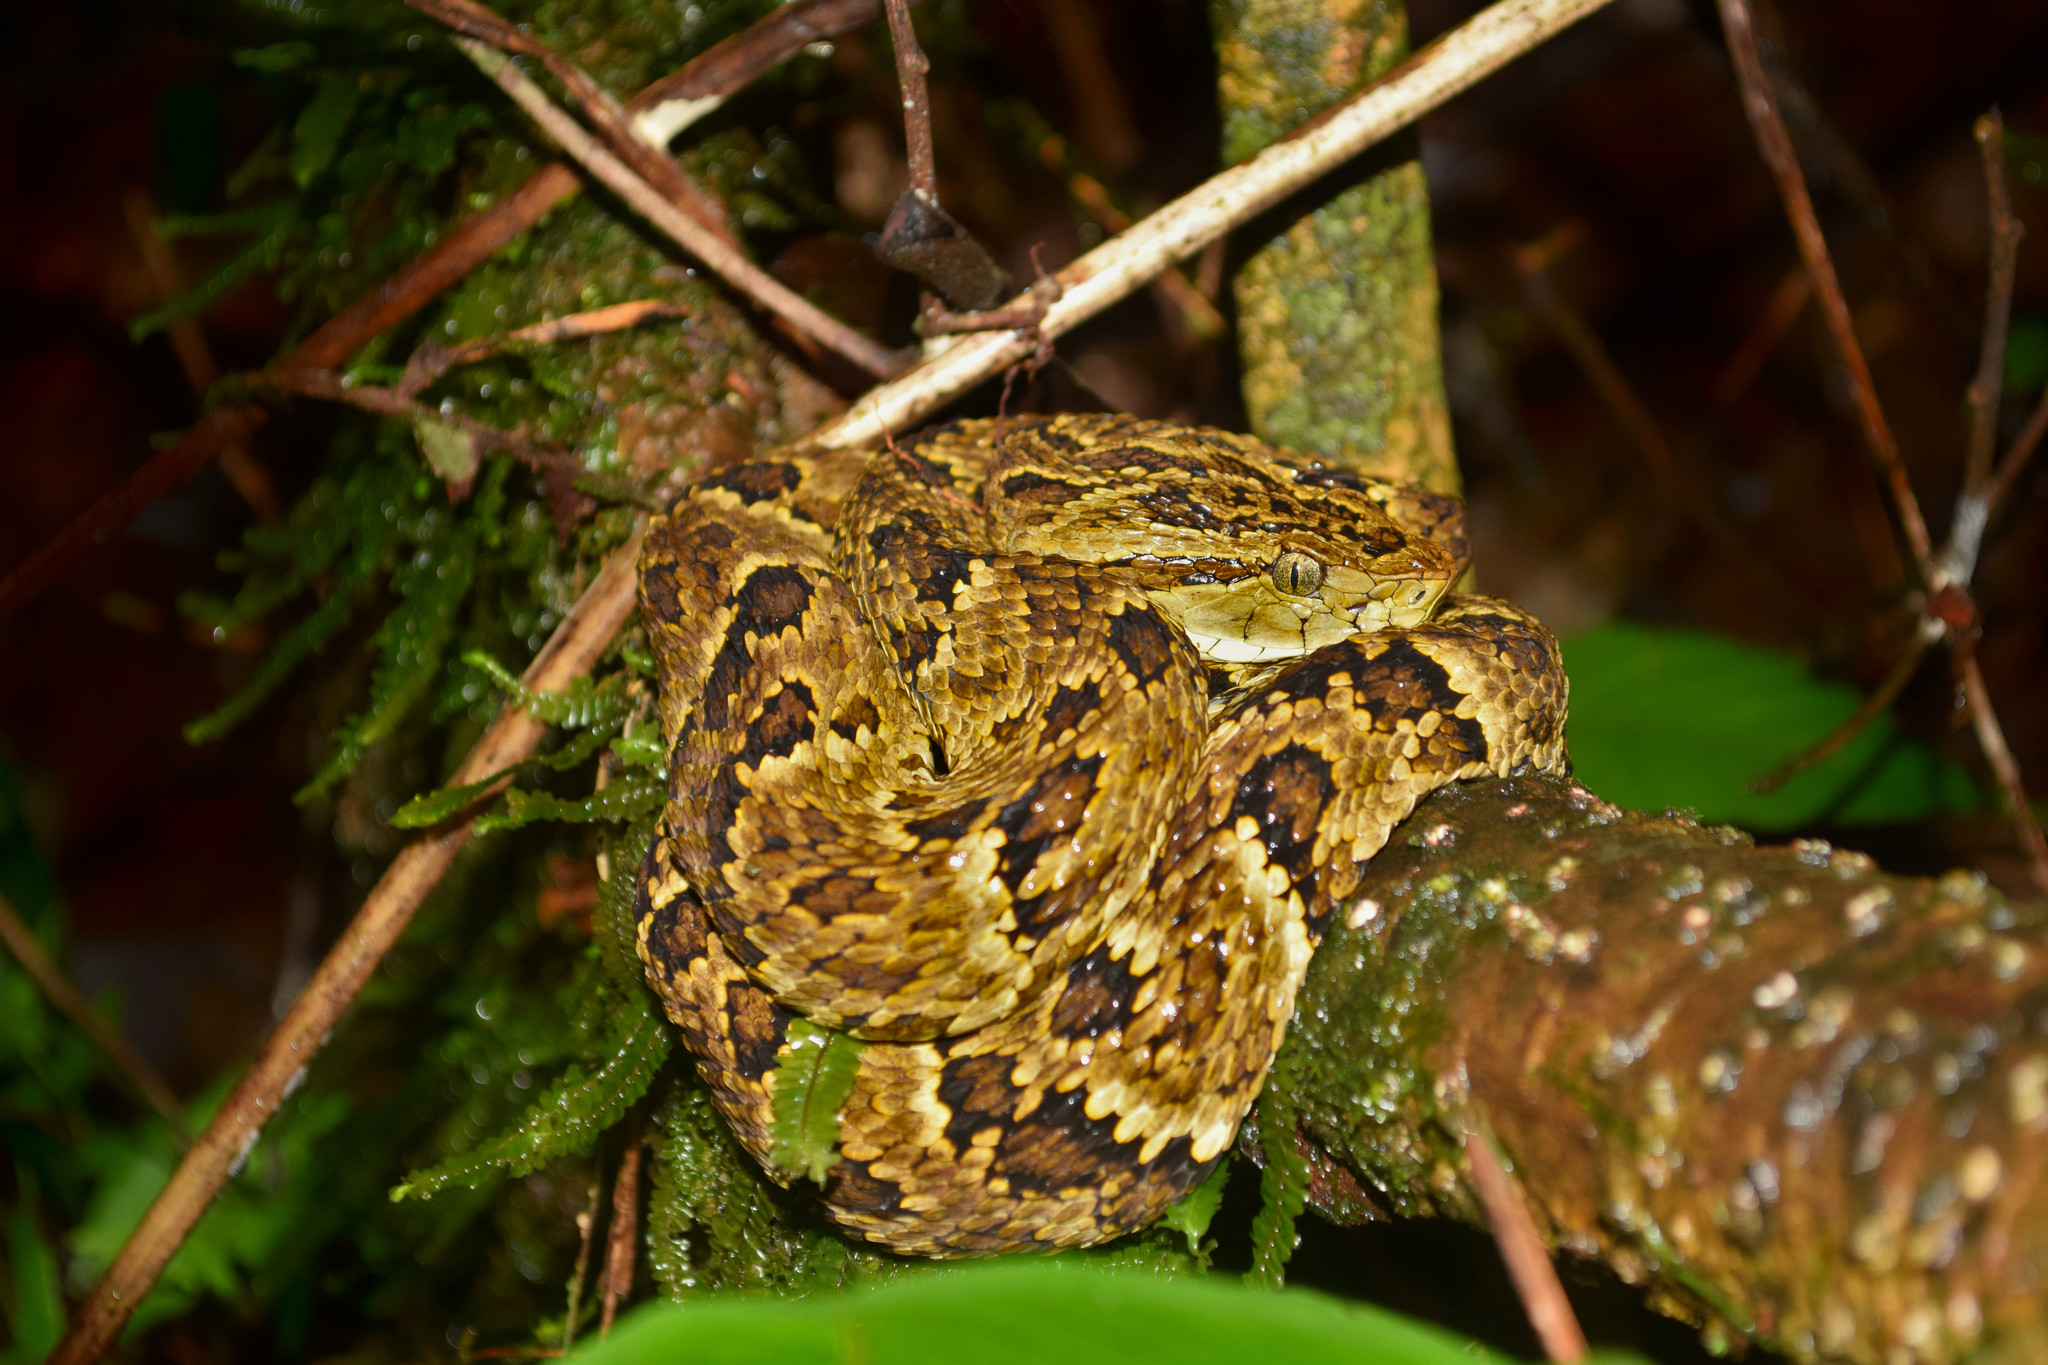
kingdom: Animalia
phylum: Chordata
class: Squamata
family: Viperidae
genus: Bothrops
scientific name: Bothrops punctatus
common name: Chocoan forest pit viper
